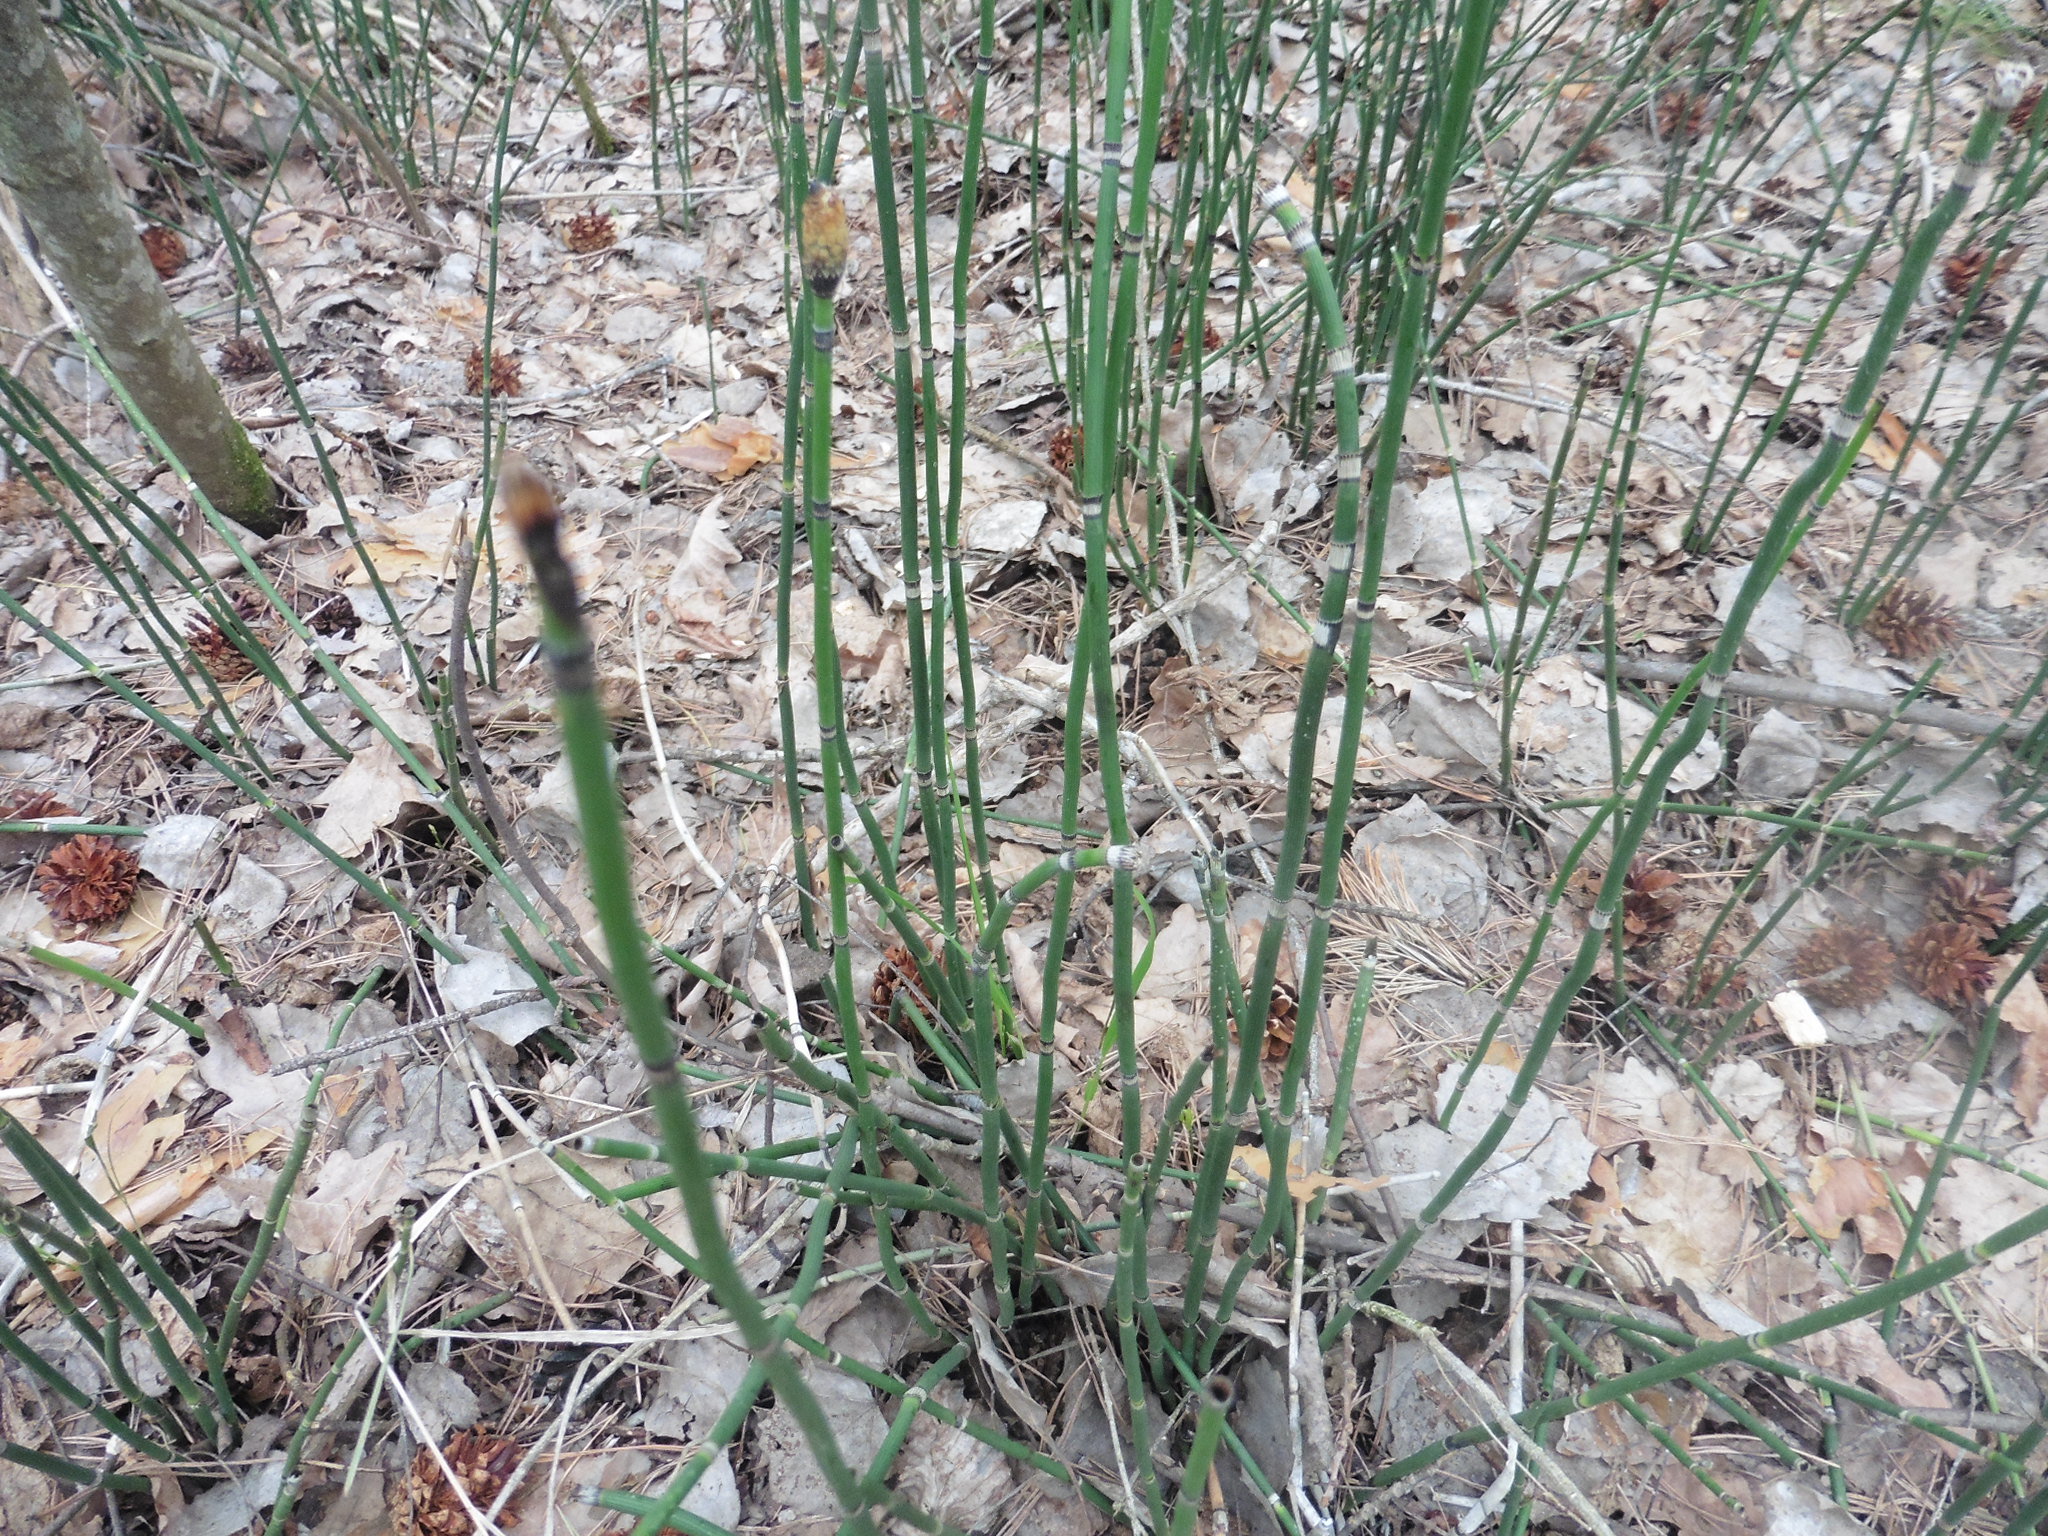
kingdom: Plantae
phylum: Tracheophyta
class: Polypodiopsida
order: Equisetales
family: Equisetaceae
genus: Equisetum
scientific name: Equisetum hyemale
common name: Rough horsetail
